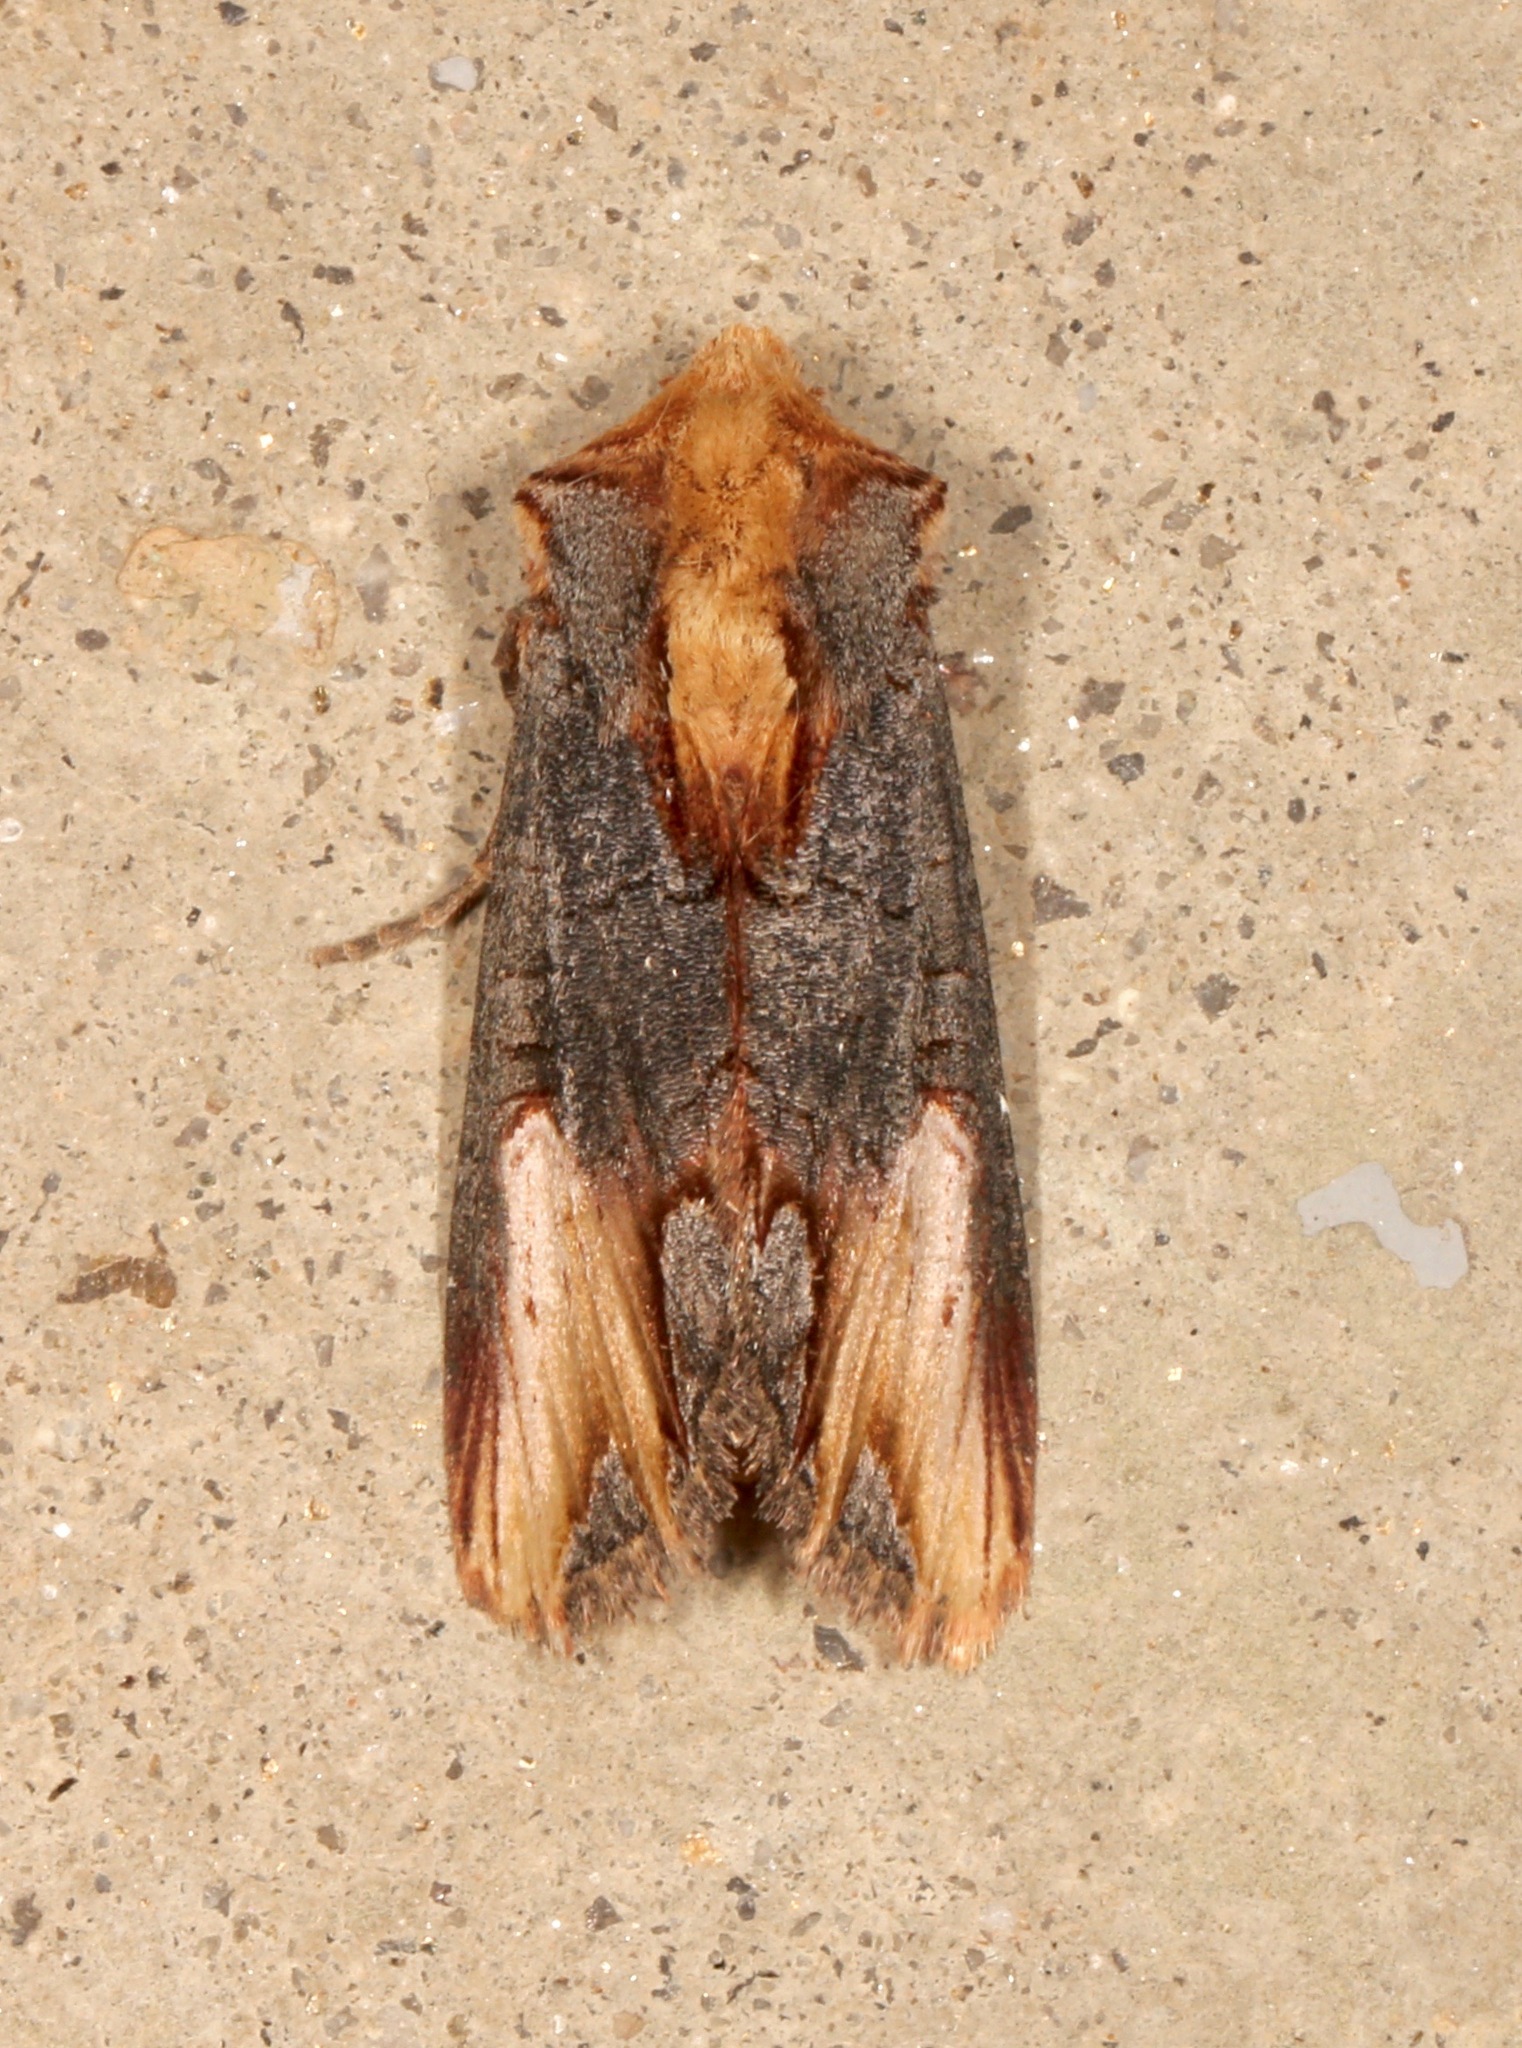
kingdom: Animalia
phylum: Arthropoda
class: Insecta
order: Lepidoptera
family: Noctuidae
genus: Admetovis
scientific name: Admetovis similaris
